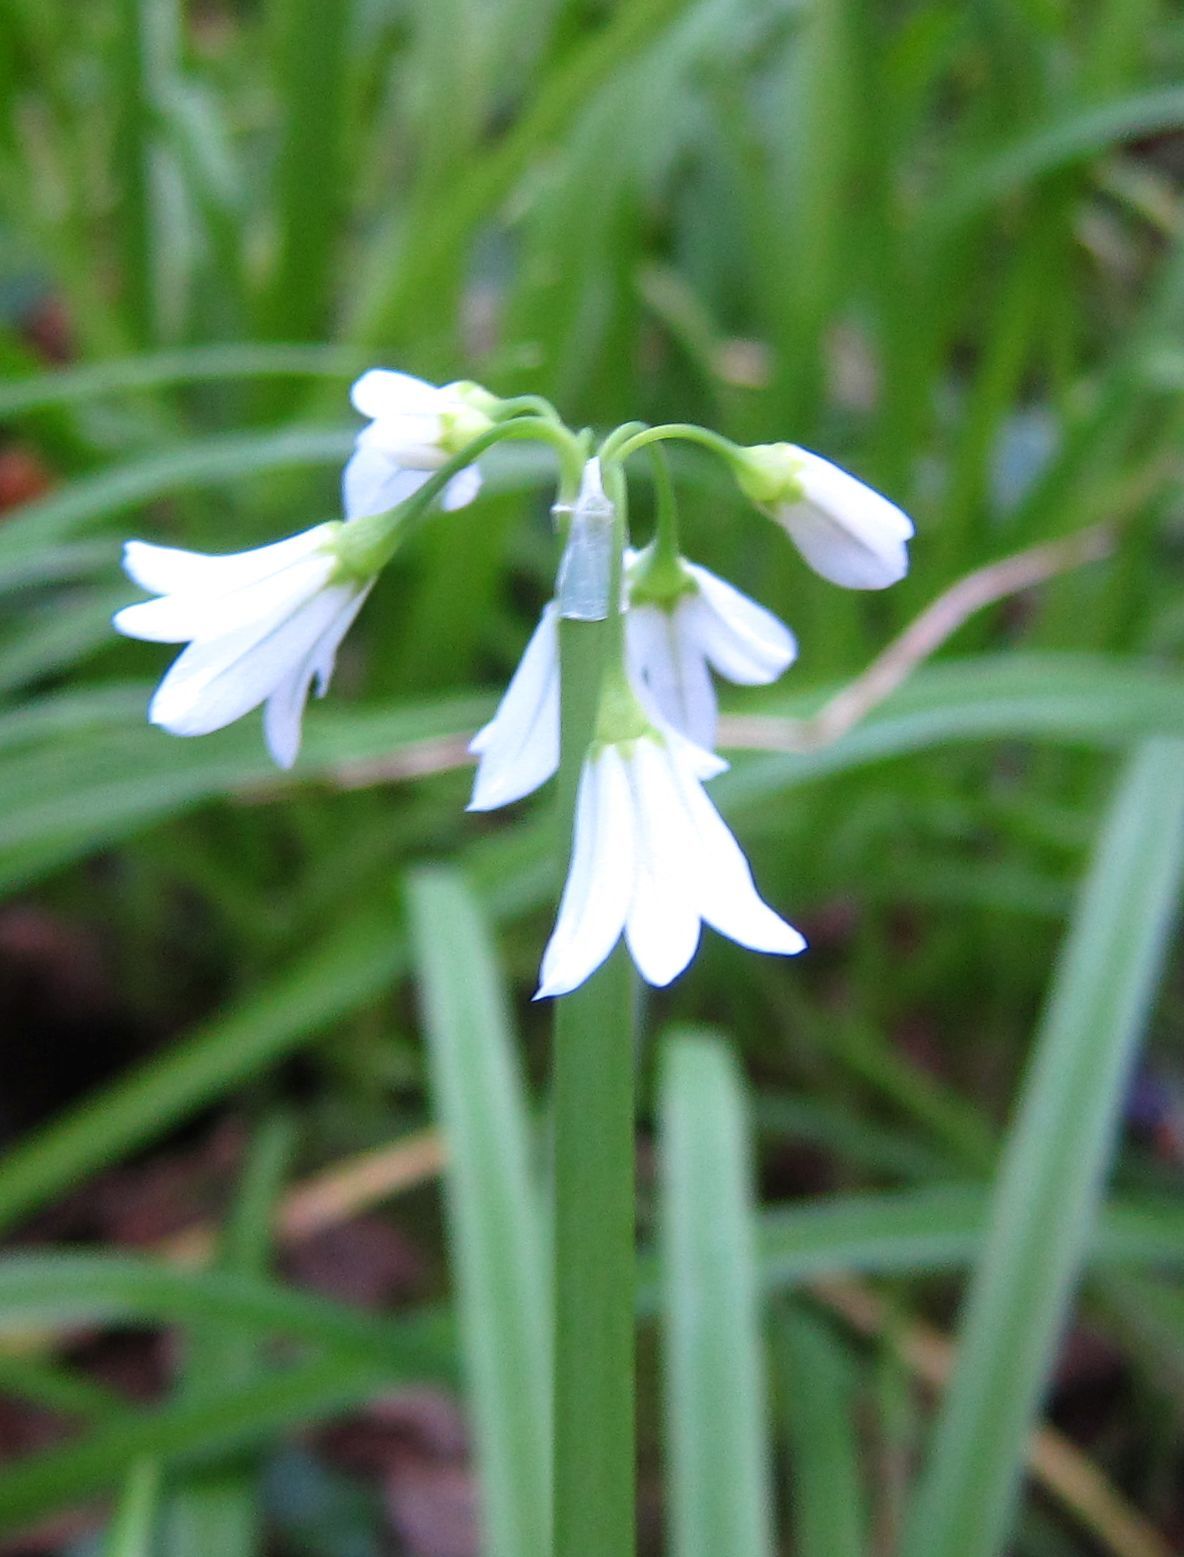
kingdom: Plantae
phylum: Tracheophyta
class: Liliopsida
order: Asparagales
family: Amaryllidaceae
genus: Allium
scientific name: Allium triquetrum
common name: Three-cornered garlic
